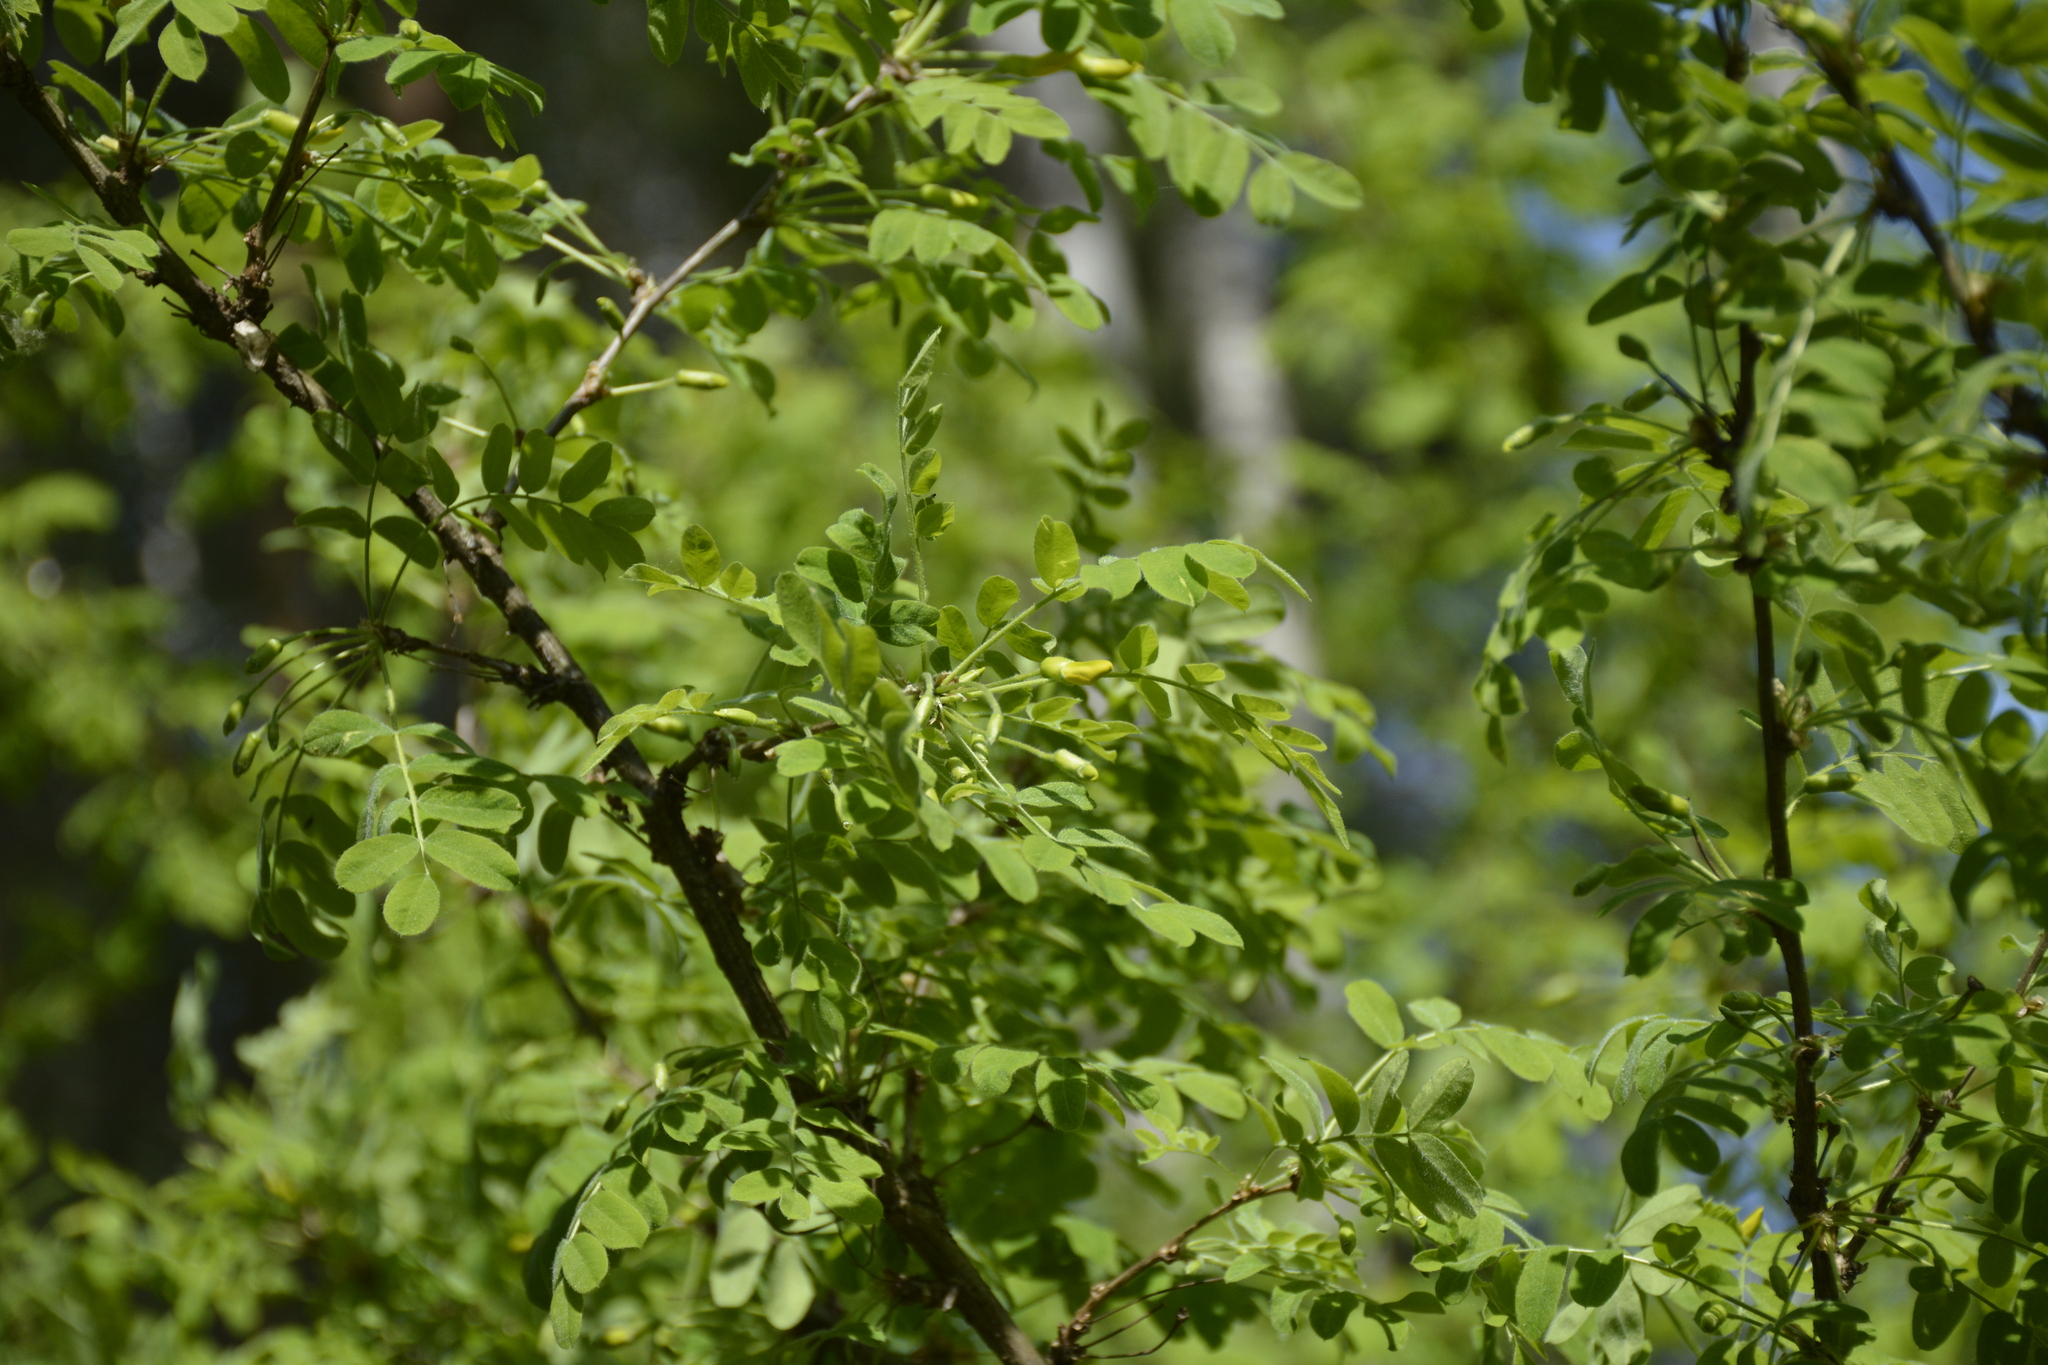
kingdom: Plantae
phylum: Tracheophyta
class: Magnoliopsida
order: Fabales
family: Fabaceae
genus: Caragana
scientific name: Caragana arborescens
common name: Siberian peashrub
